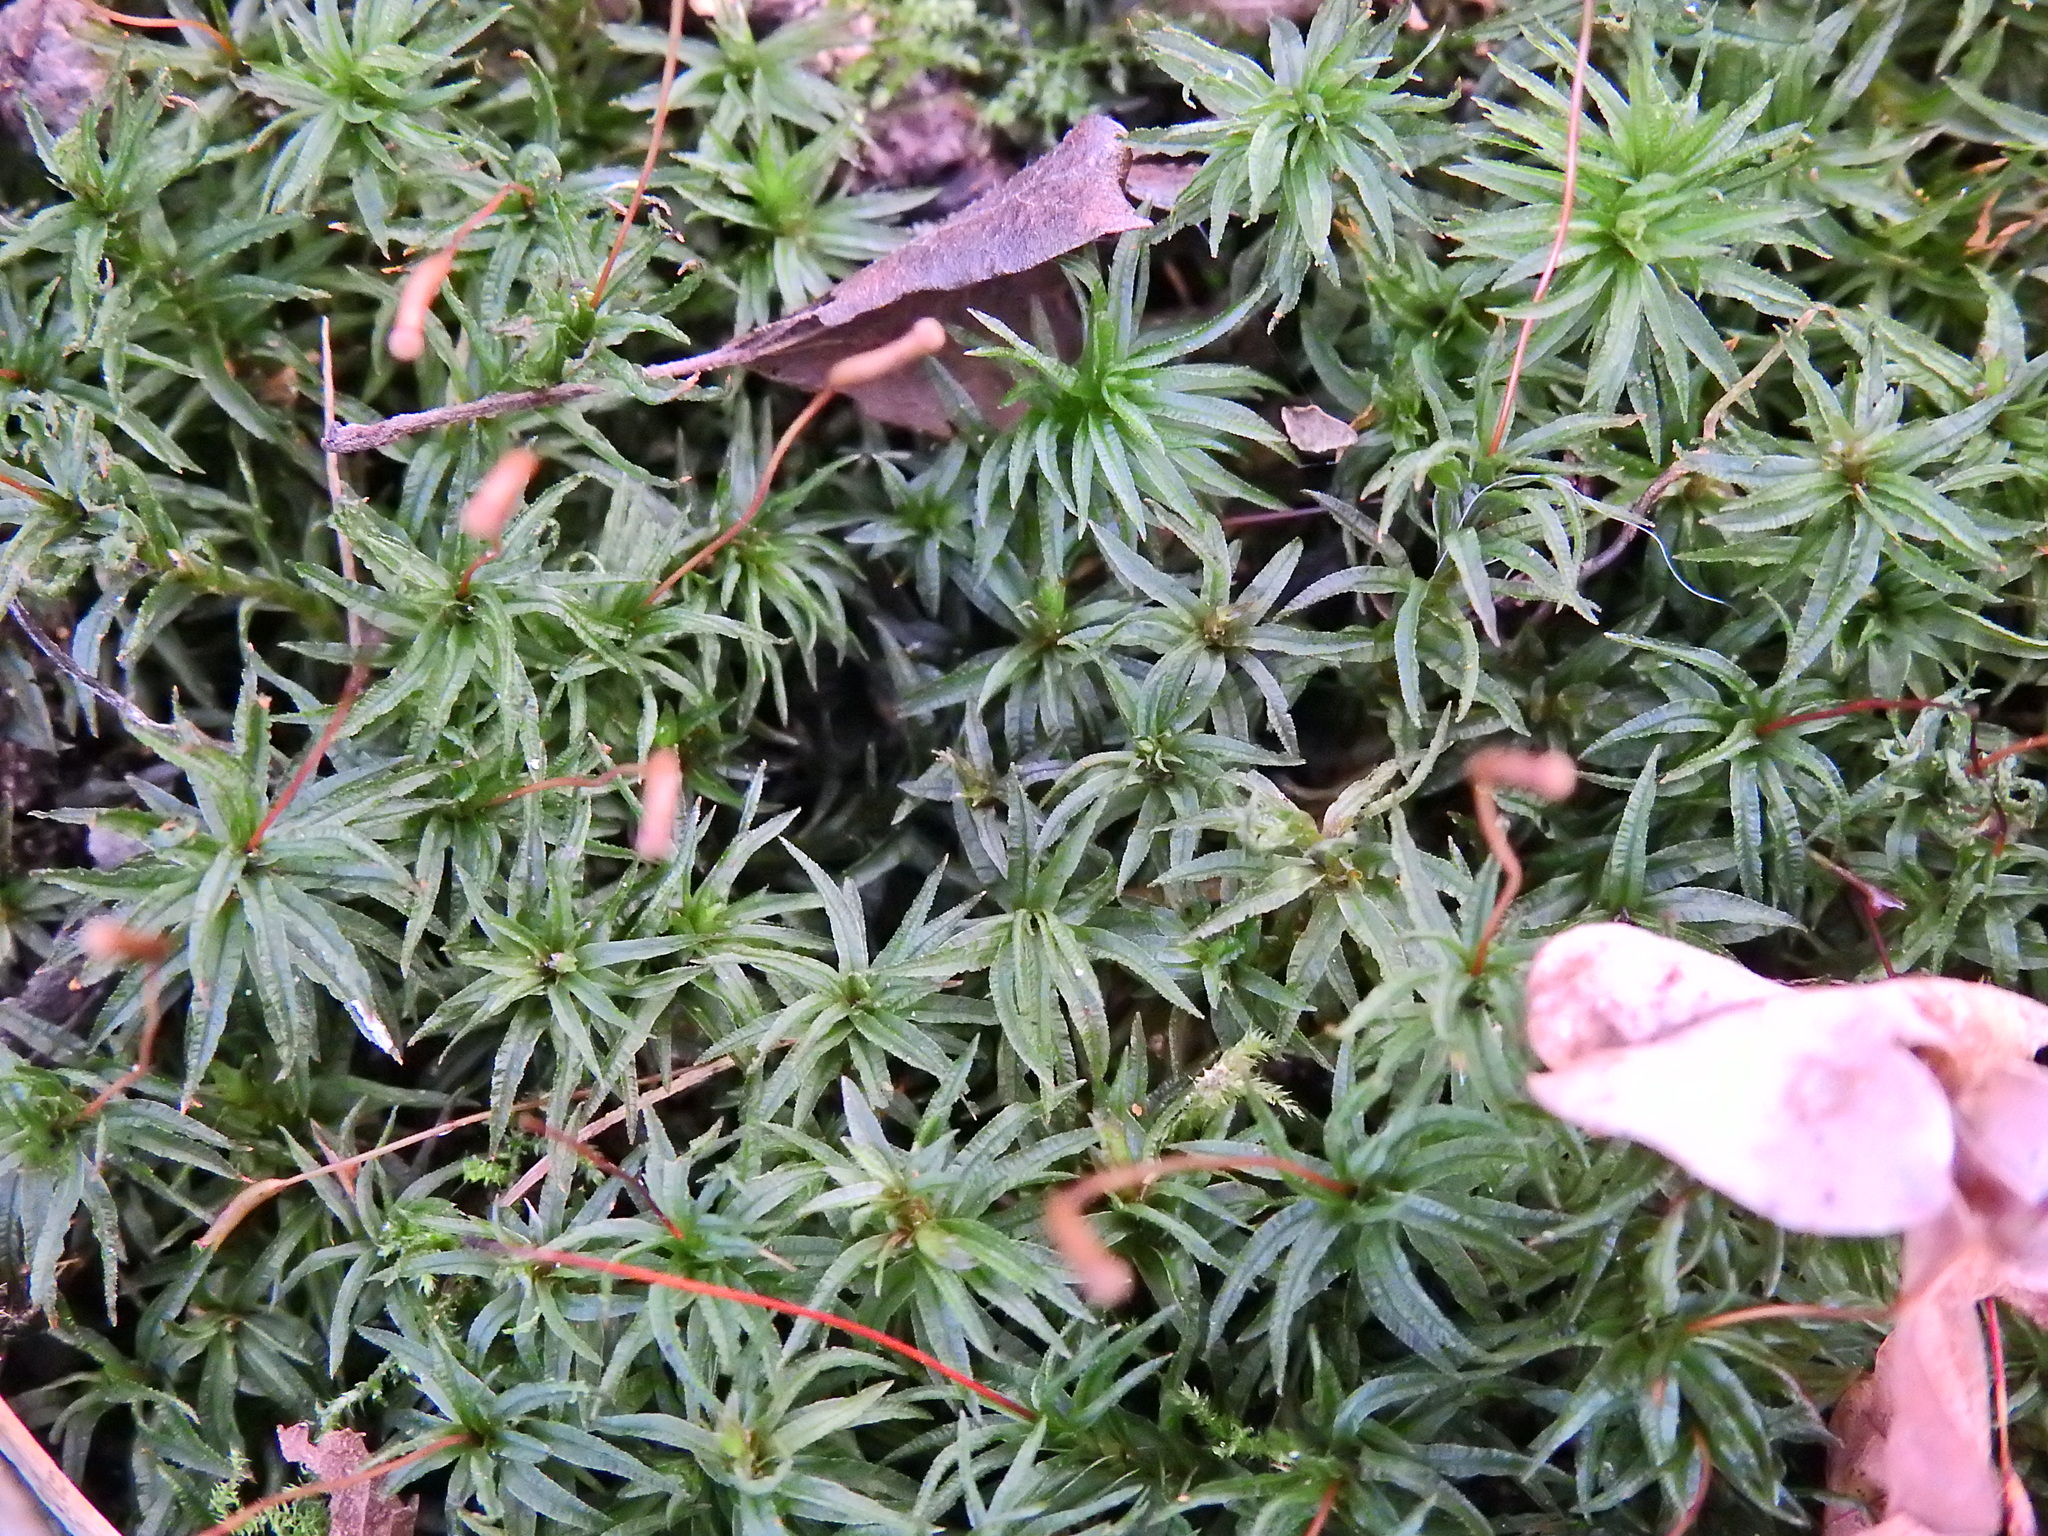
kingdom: Plantae
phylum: Bryophyta
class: Polytrichopsida
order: Polytrichales
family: Polytrichaceae
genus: Atrichum
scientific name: Atrichum undulatum
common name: Common smoothcap
